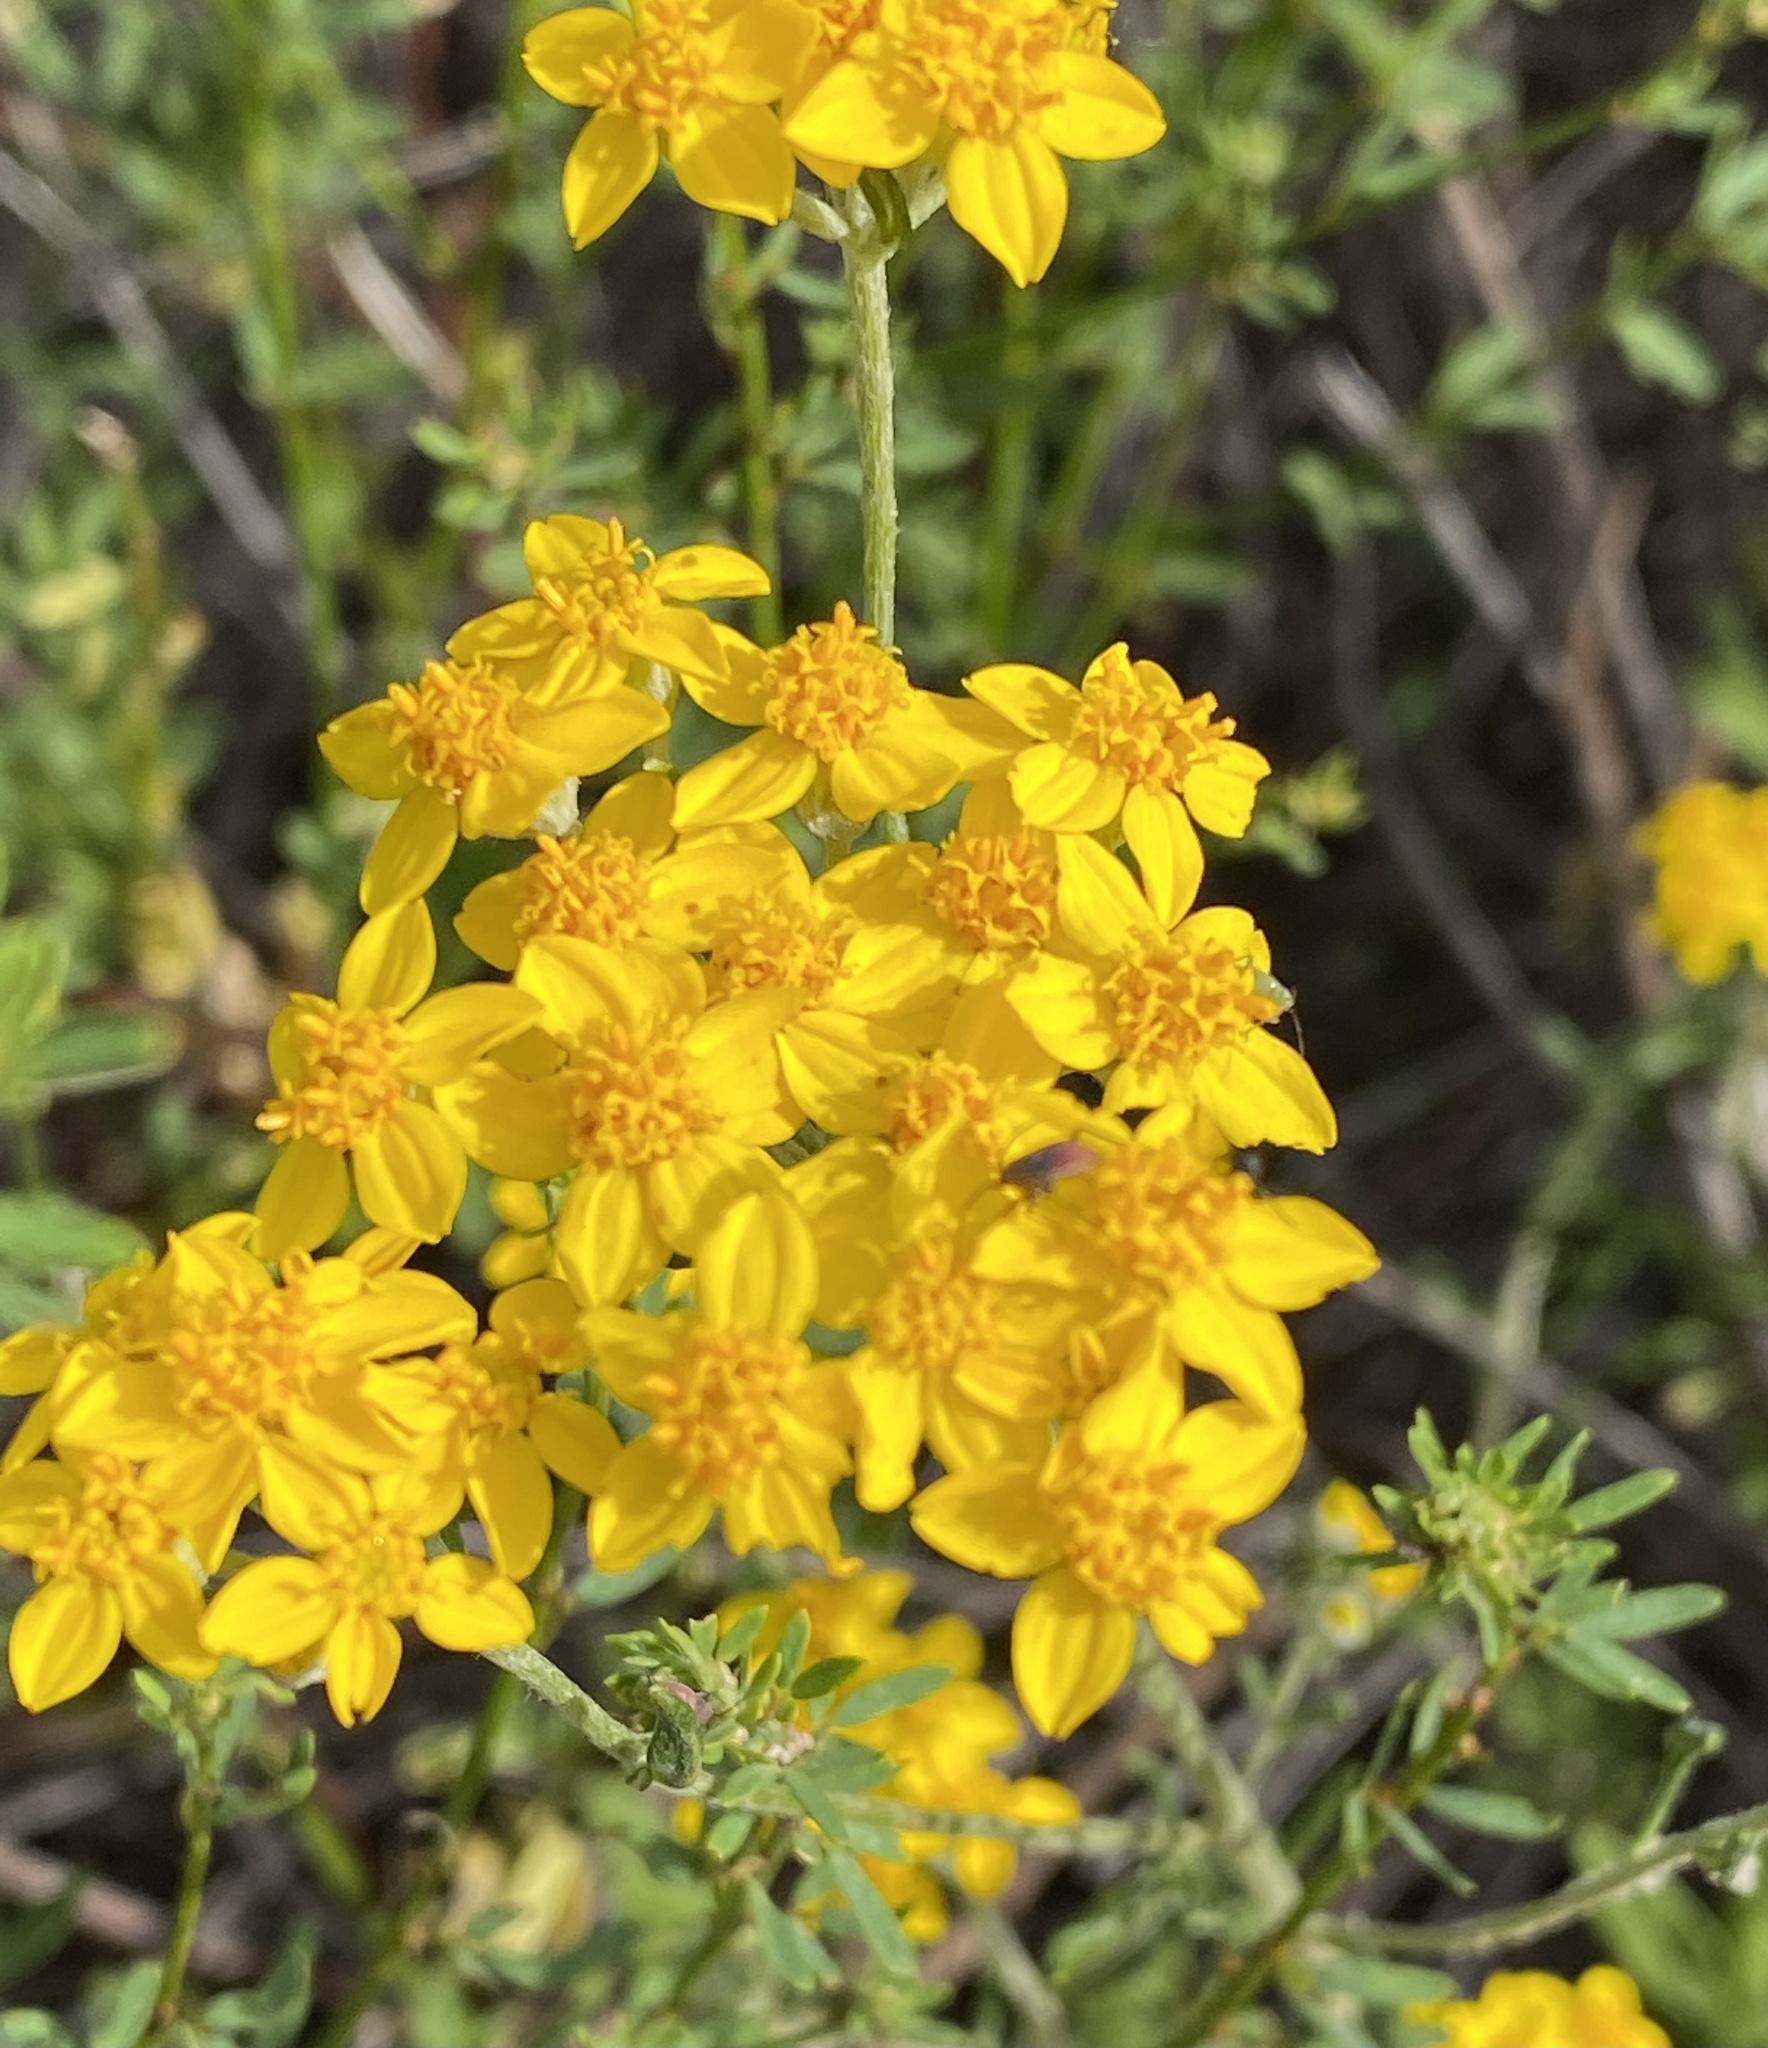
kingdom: Plantae
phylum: Tracheophyta
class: Magnoliopsida
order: Asterales
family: Asteraceae
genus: Eriophyllum
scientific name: Eriophyllum confertiflorum
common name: Golden-yarrow
